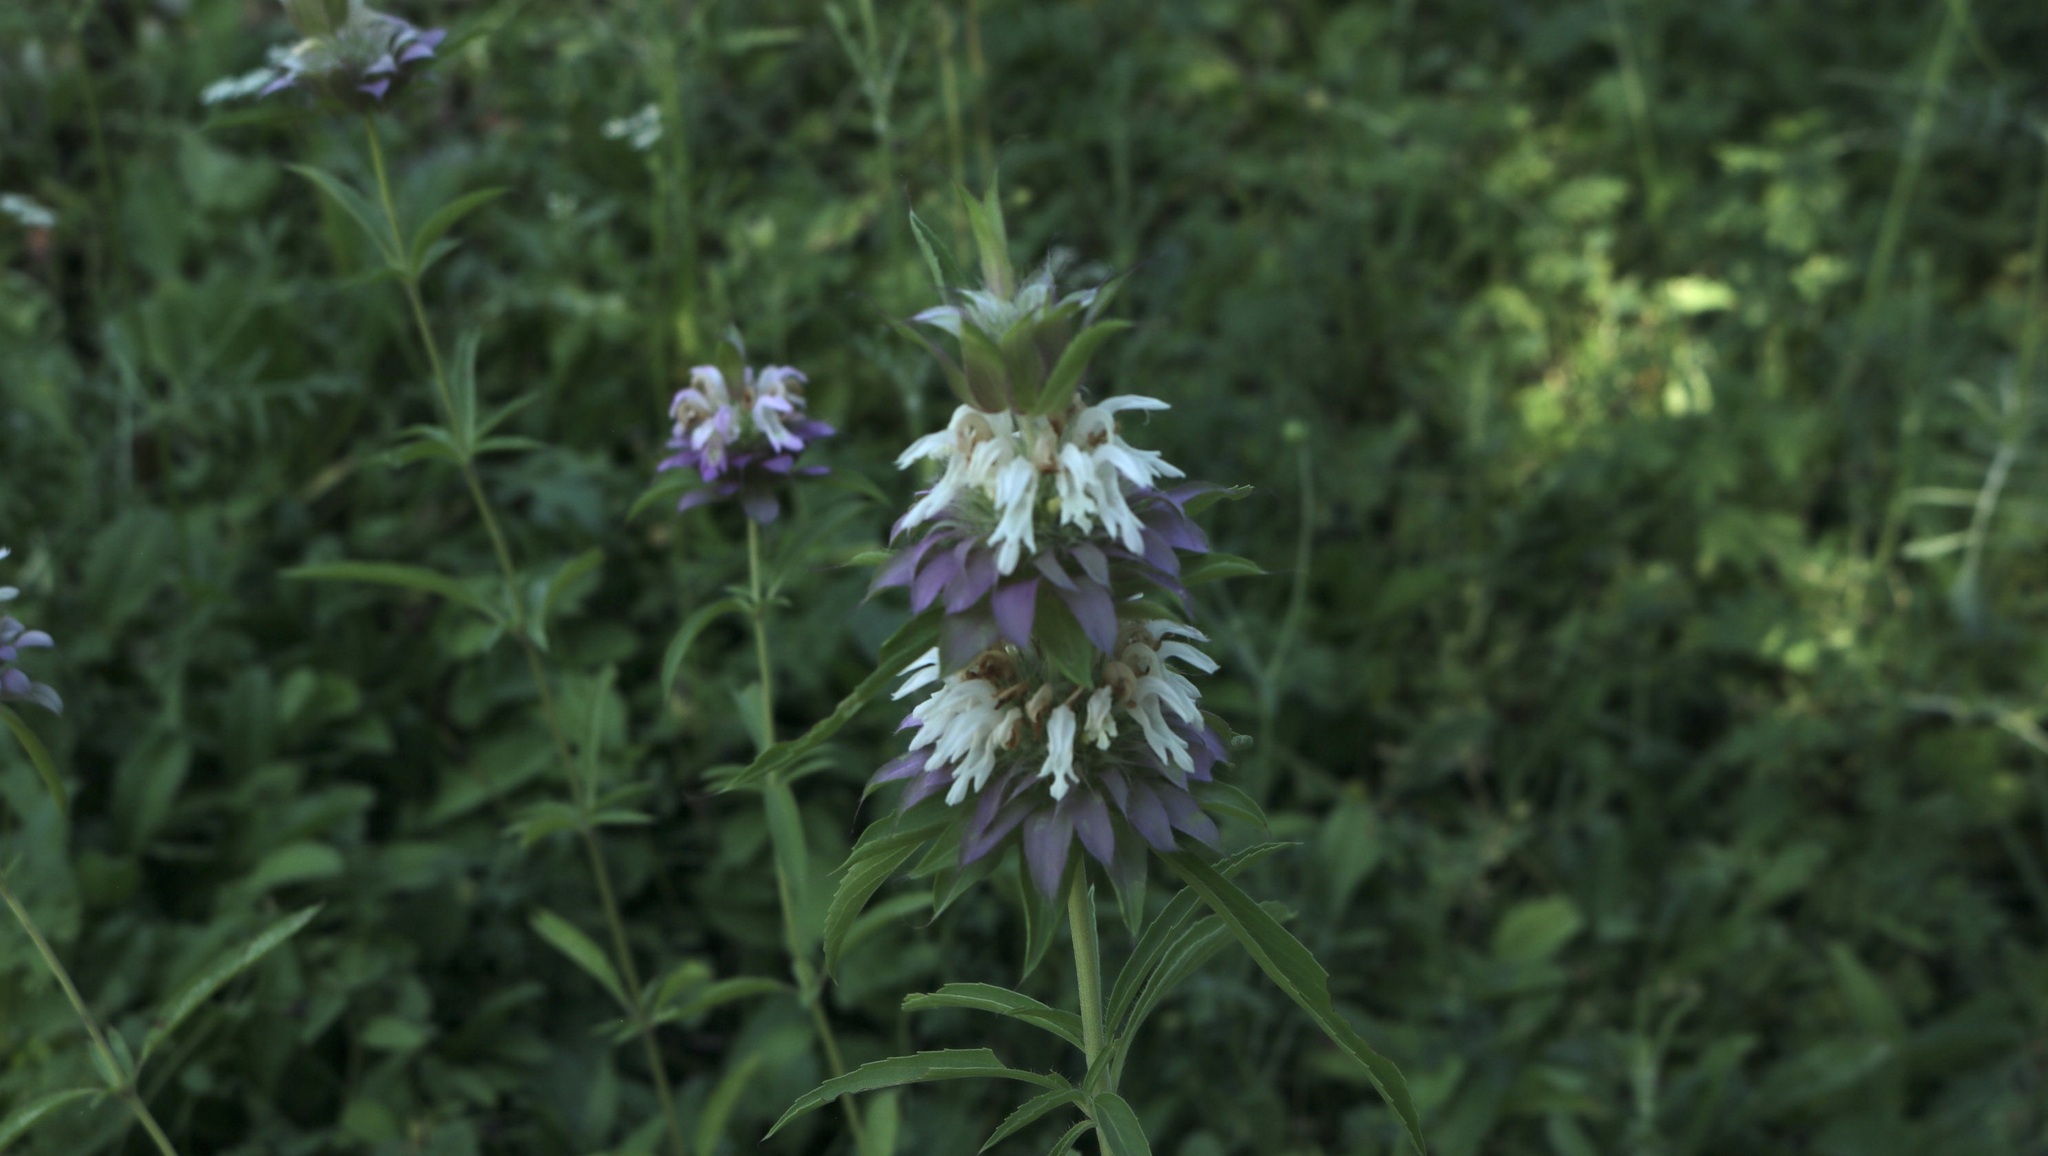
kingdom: Plantae
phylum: Tracheophyta
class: Magnoliopsida
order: Lamiales
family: Lamiaceae
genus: Monarda
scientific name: Monarda citriodora
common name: Lemon beebalm
